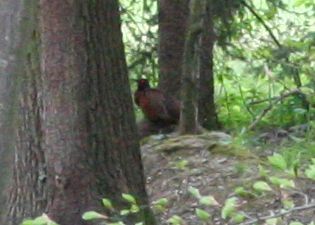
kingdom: Animalia
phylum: Chordata
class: Aves
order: Galliformes
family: Phasianidae
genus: Phasianus
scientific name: Phasianus colchicus
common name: Common pheasant
